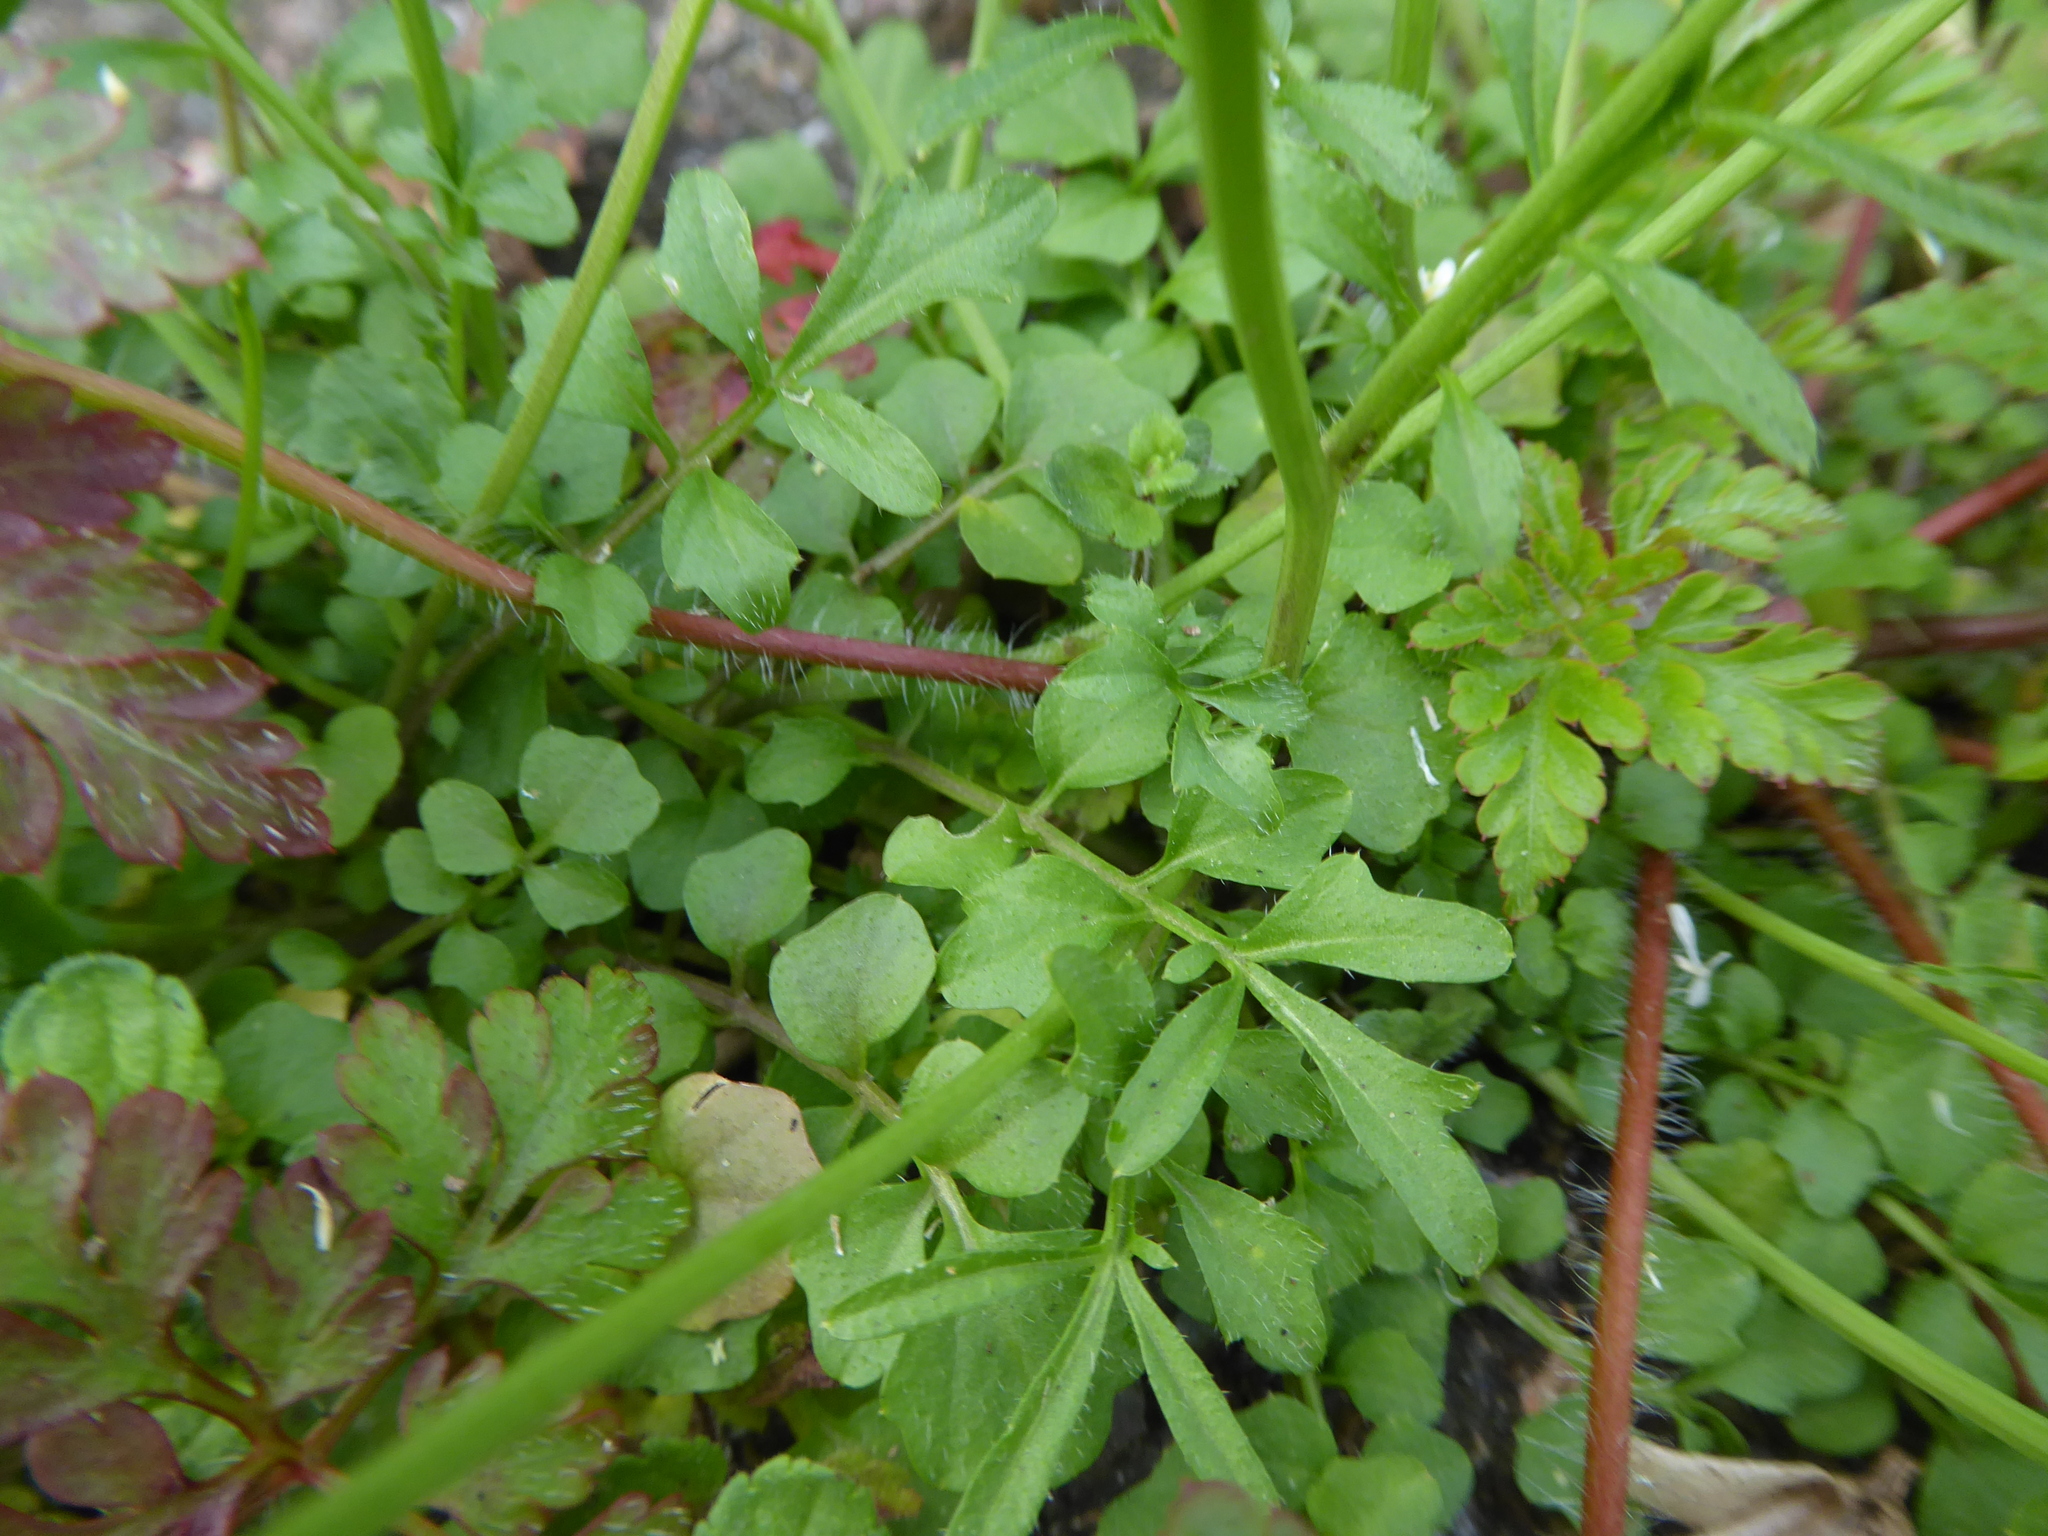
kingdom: Plantae
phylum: Tracheophyta
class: Magnoliopsida
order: Brassicales
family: Brassicaceae
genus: Cardamine
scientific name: Cardamine hirsuta
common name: Hairy bittercress
